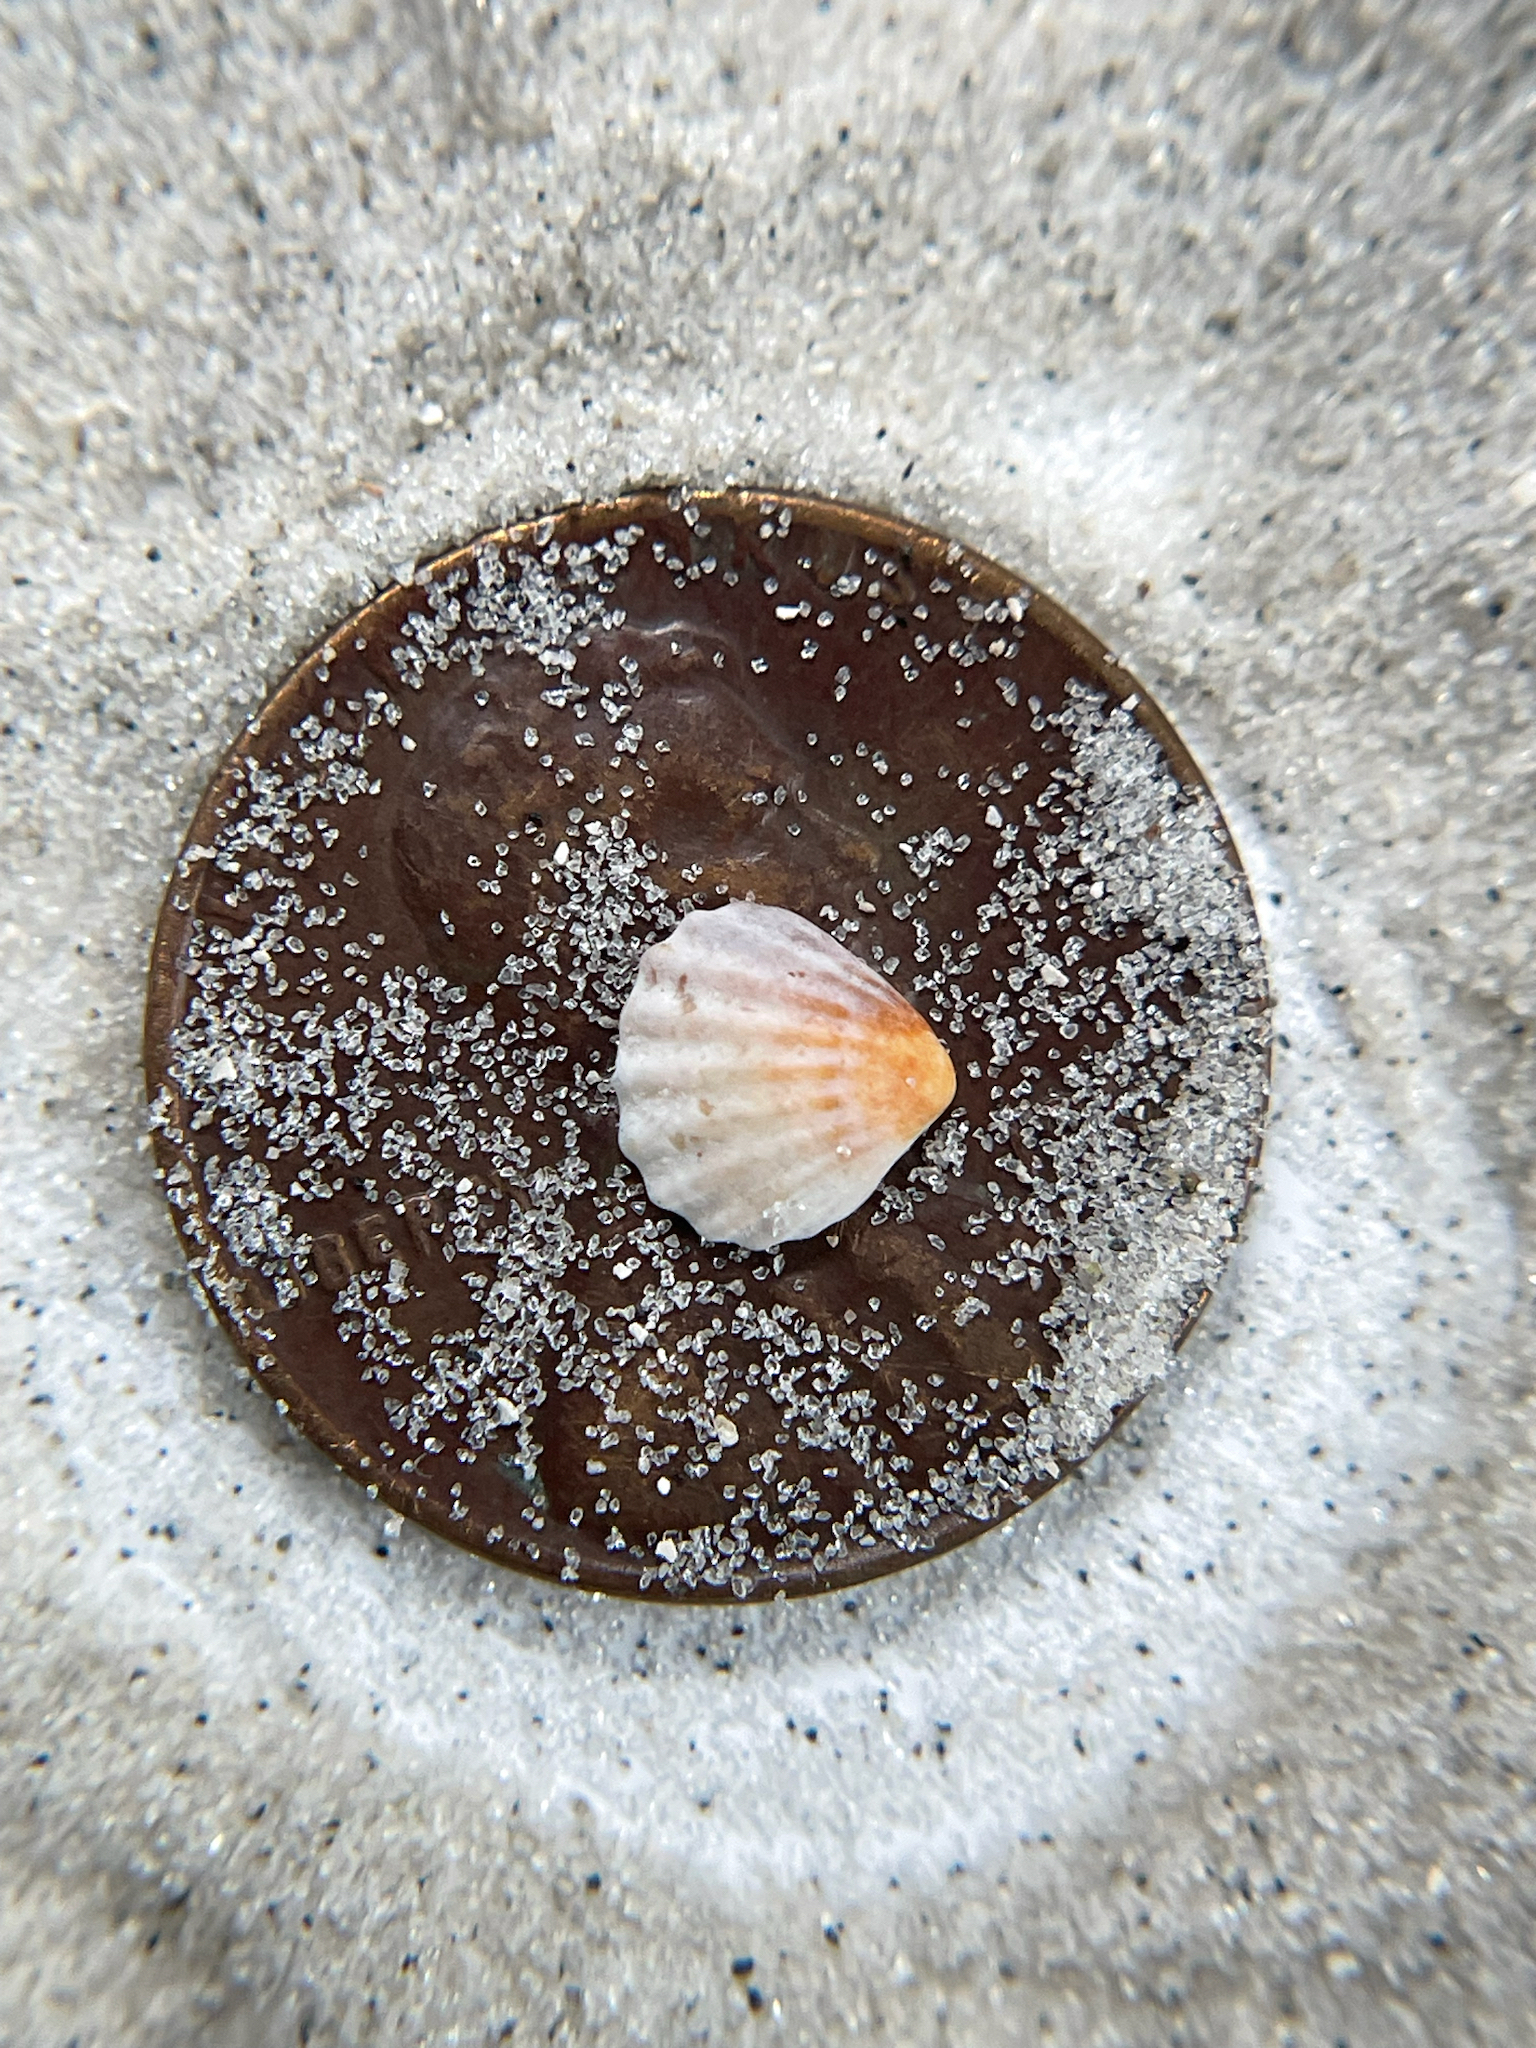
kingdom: Animalia
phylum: Mollusca
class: Bivalvia
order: Carditida
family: Carditidae
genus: Pleuromeris
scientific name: Pleuromeris tridentata
